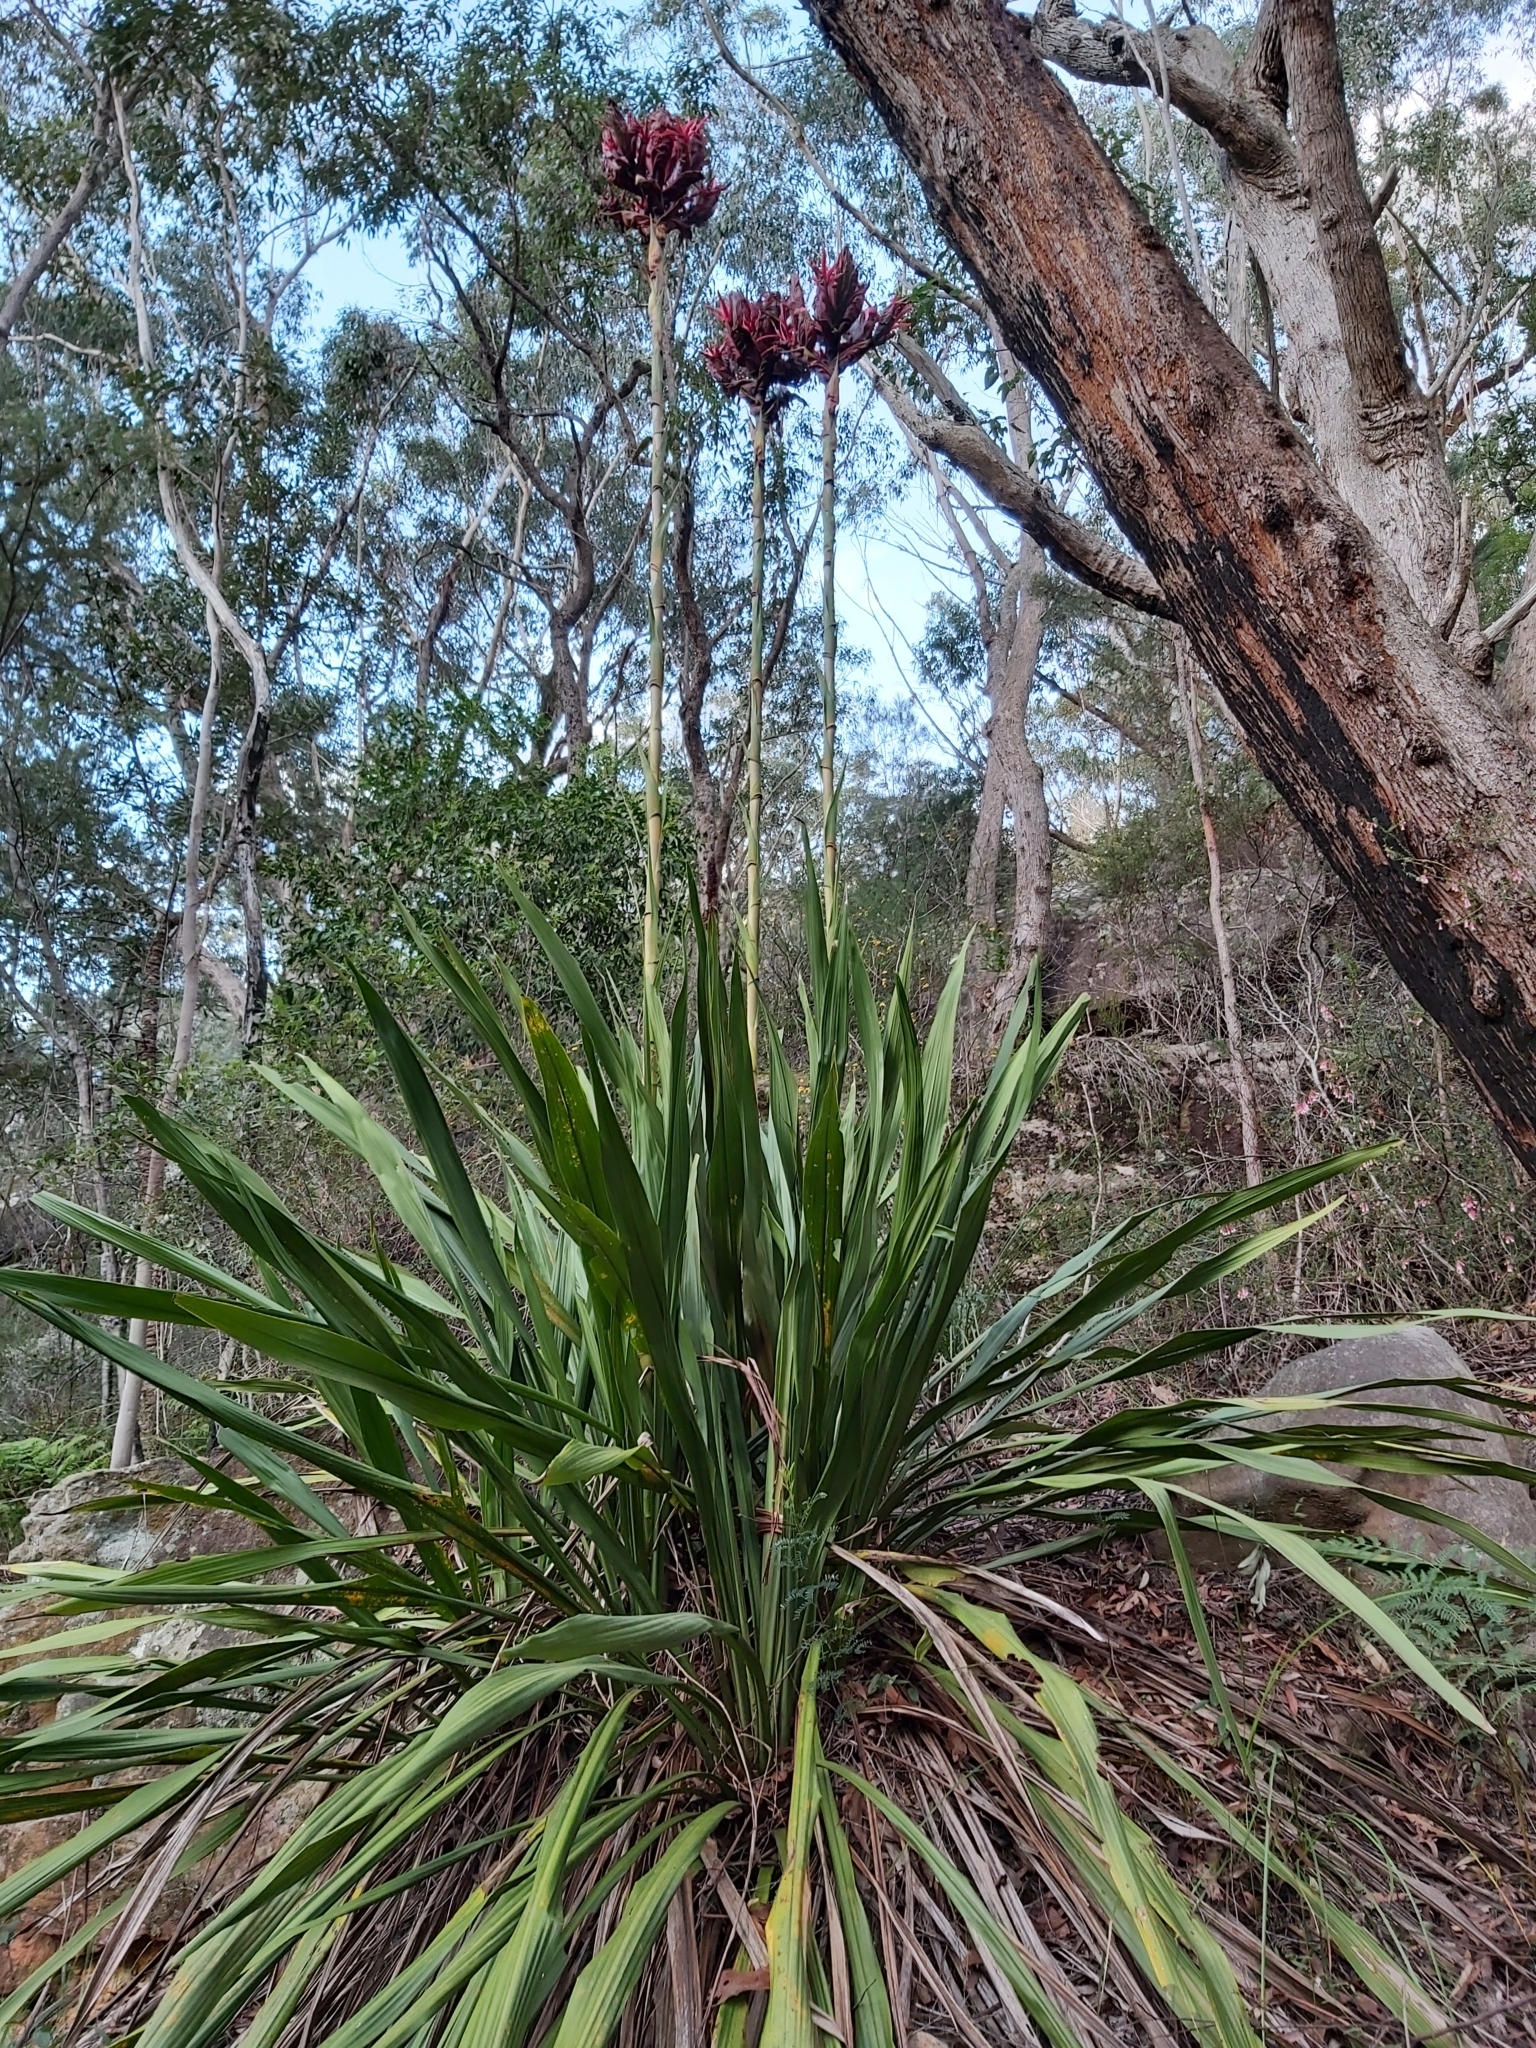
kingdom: Plantae
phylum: Tracheophyta
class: Liliopsida
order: Asparagales
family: Doryanthaceae
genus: Doryanthes
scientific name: Doryanthes excelsa
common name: Giant-lily
